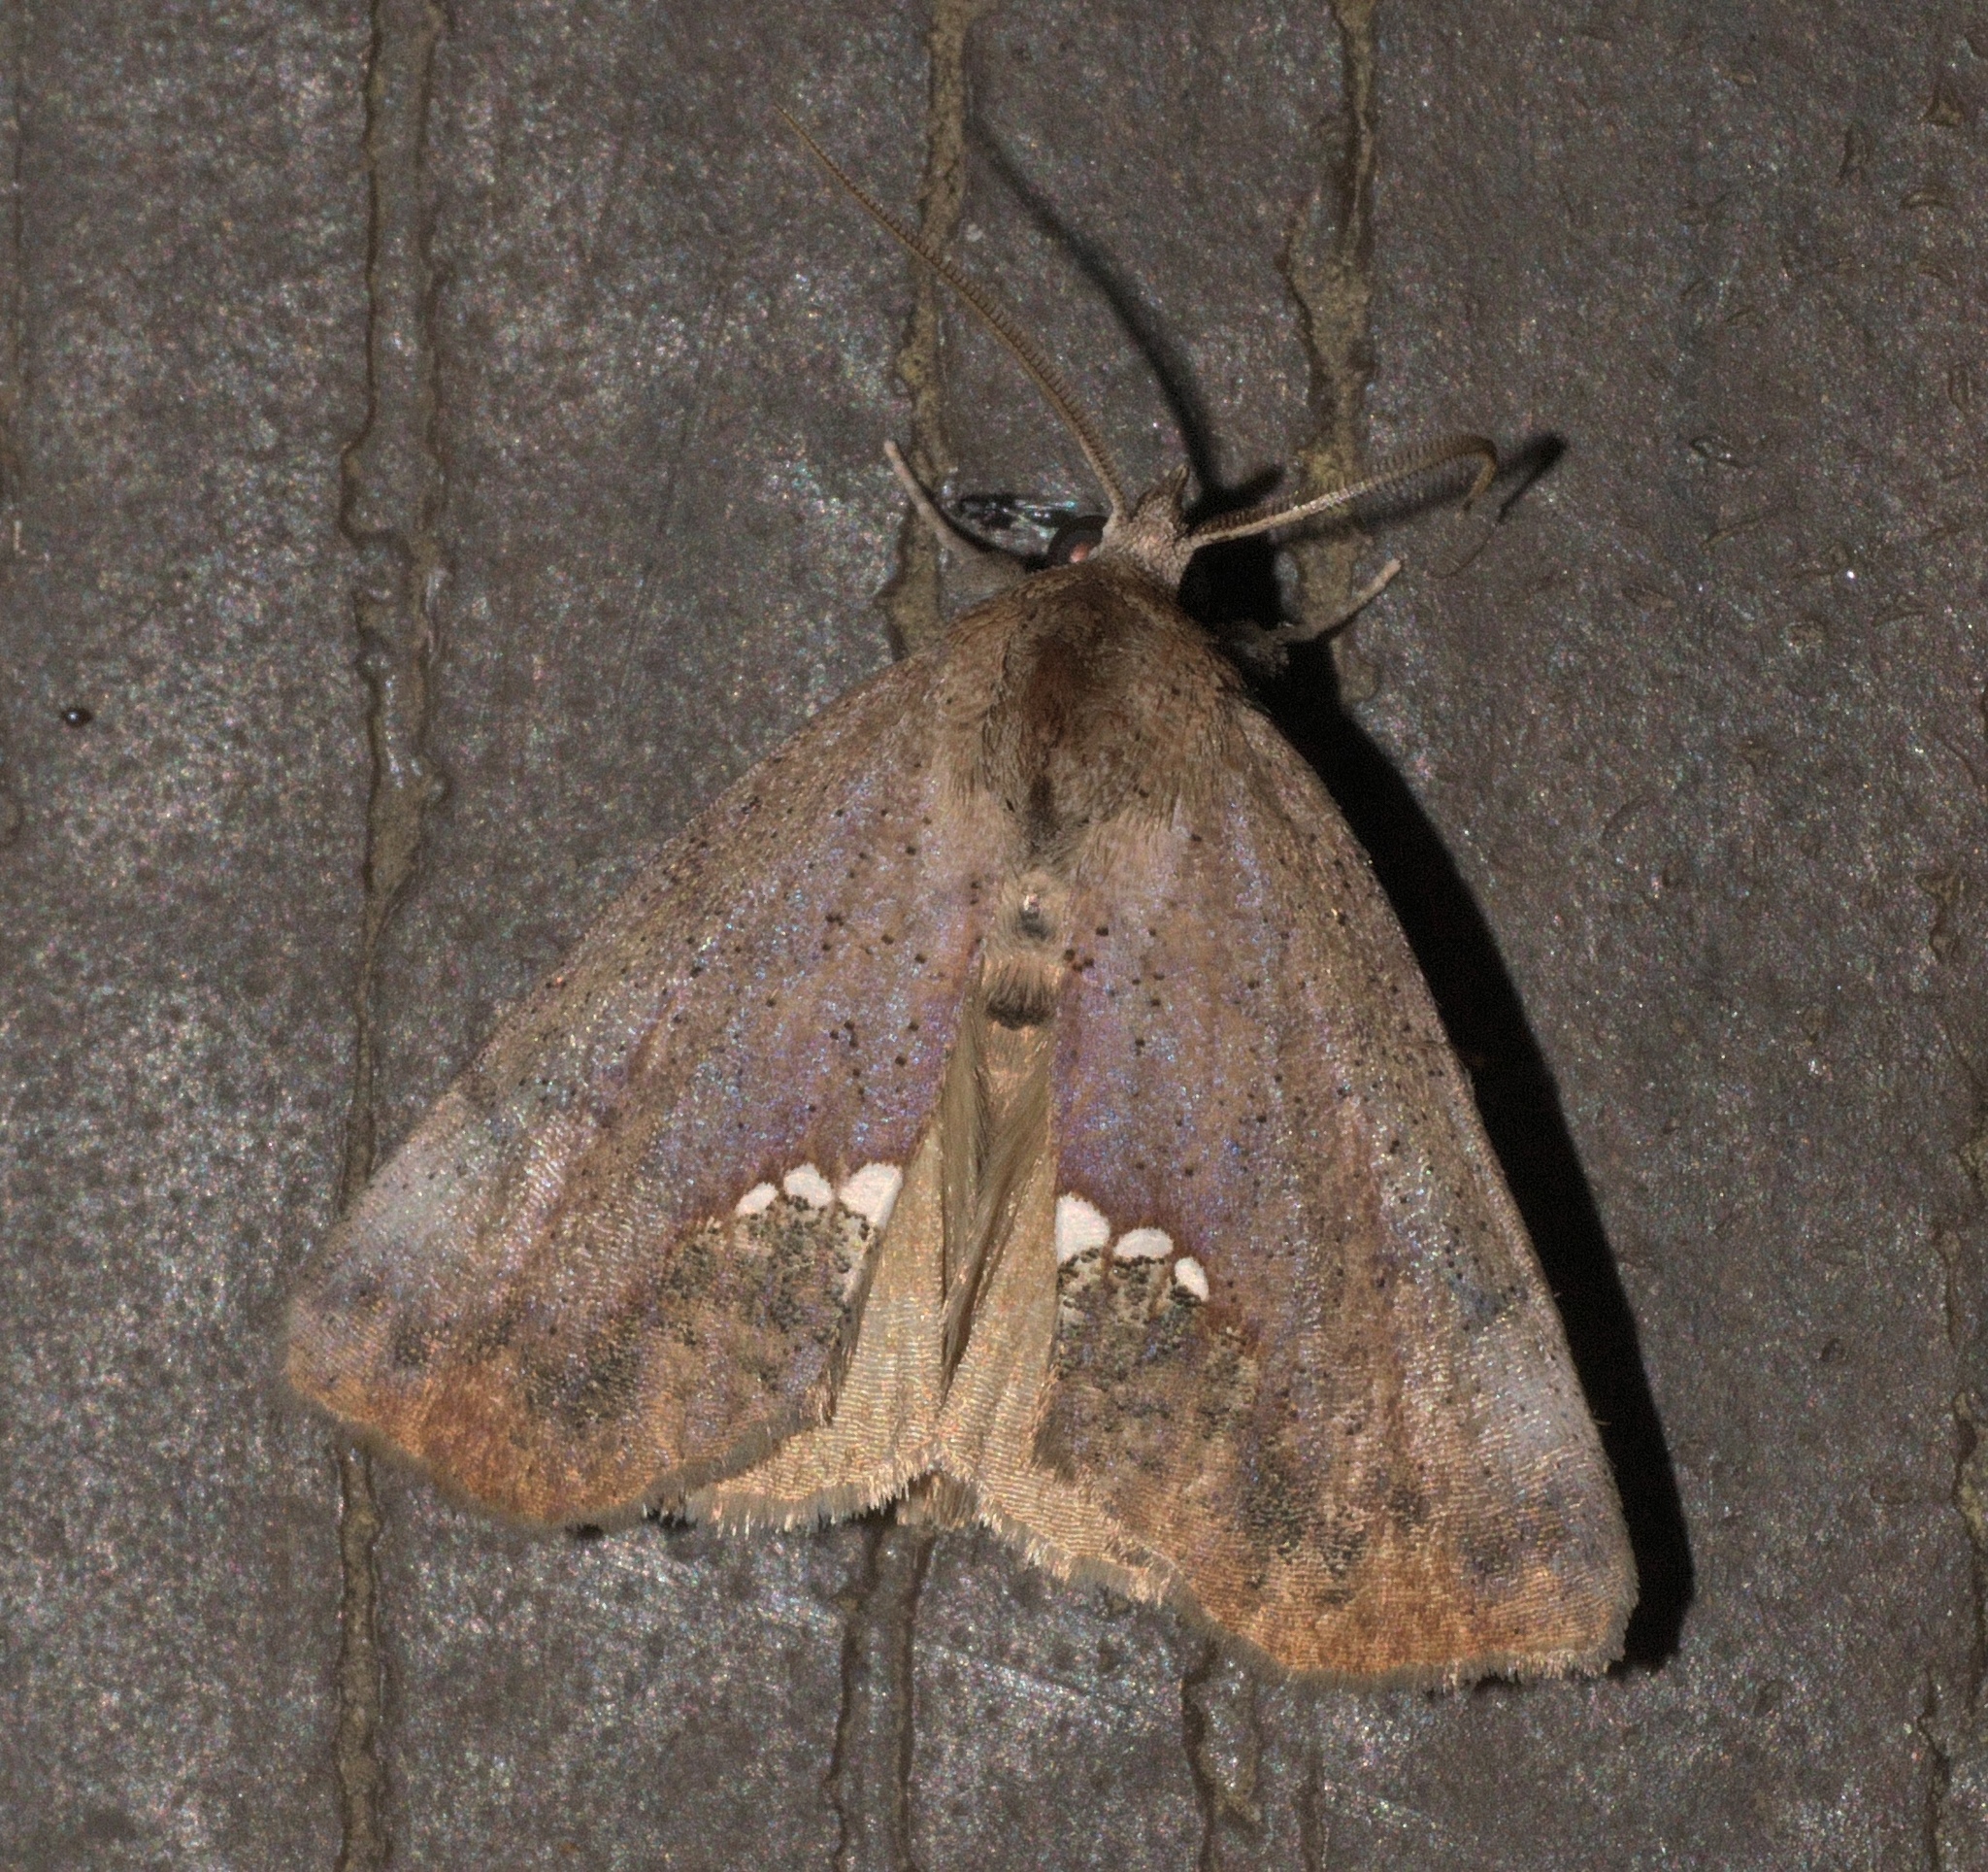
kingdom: Animalia
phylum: Arthropoda
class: Insecta
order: Lepidoptera
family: Erebidae
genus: Hypsoropha
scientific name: Hypsoropha hormos
